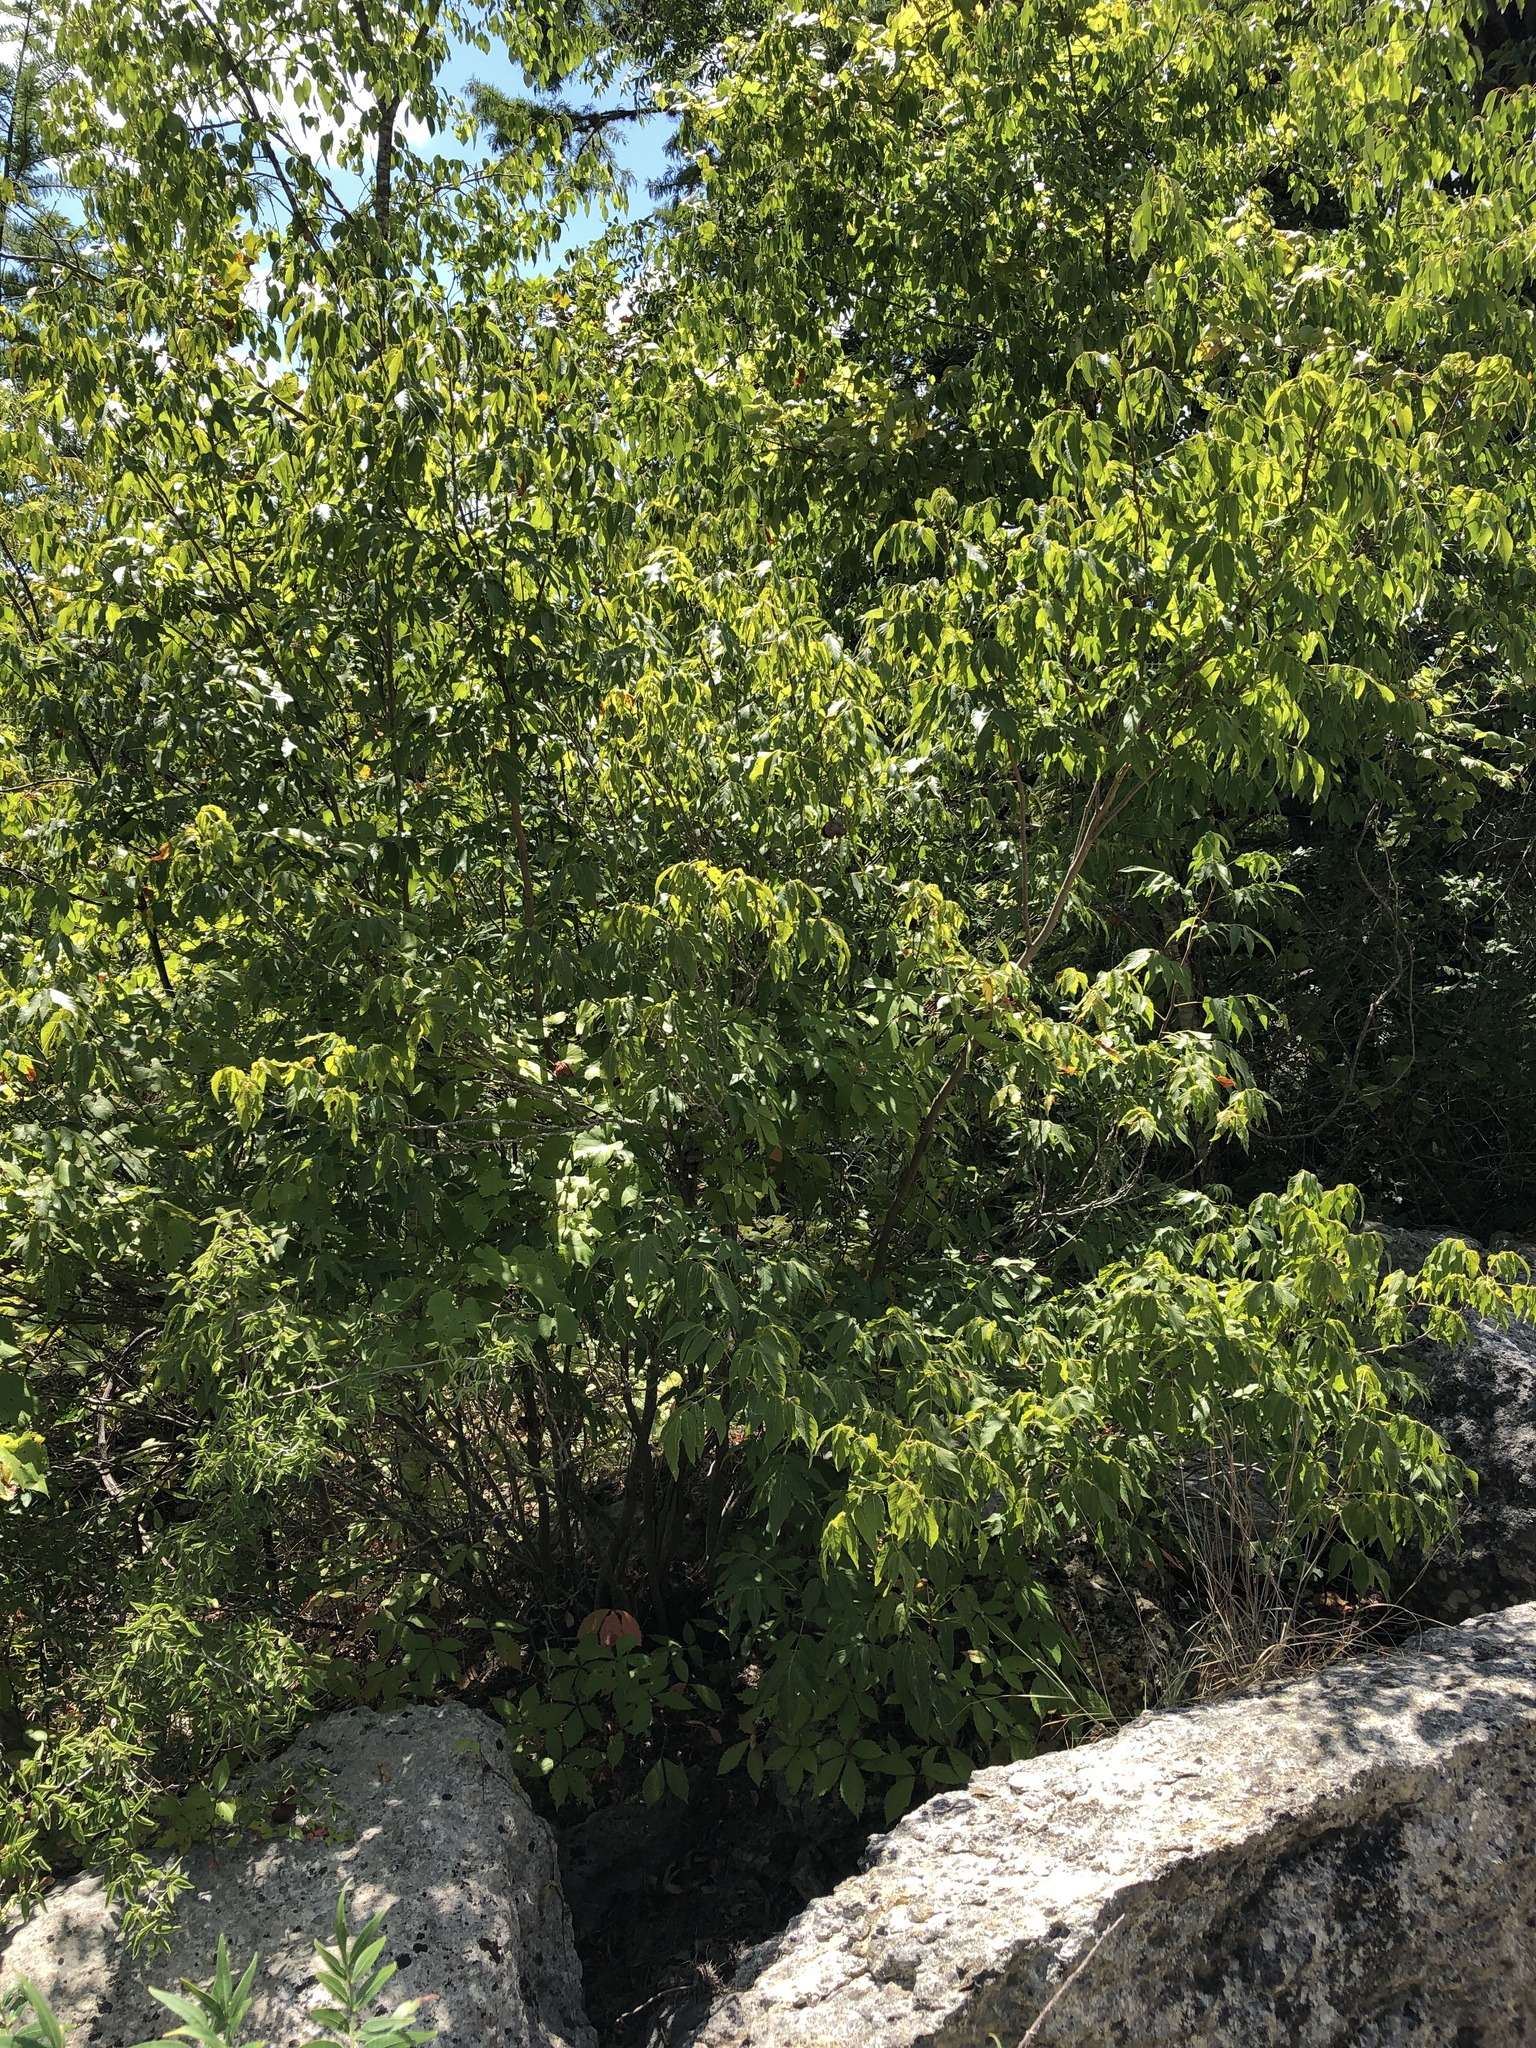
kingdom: Plantae
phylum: Tracheophyta
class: Magnoliopsida
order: Sapindales
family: Sapindaceae
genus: Ungnadia
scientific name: Ungnadia speciosa
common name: Texas-buckeye
